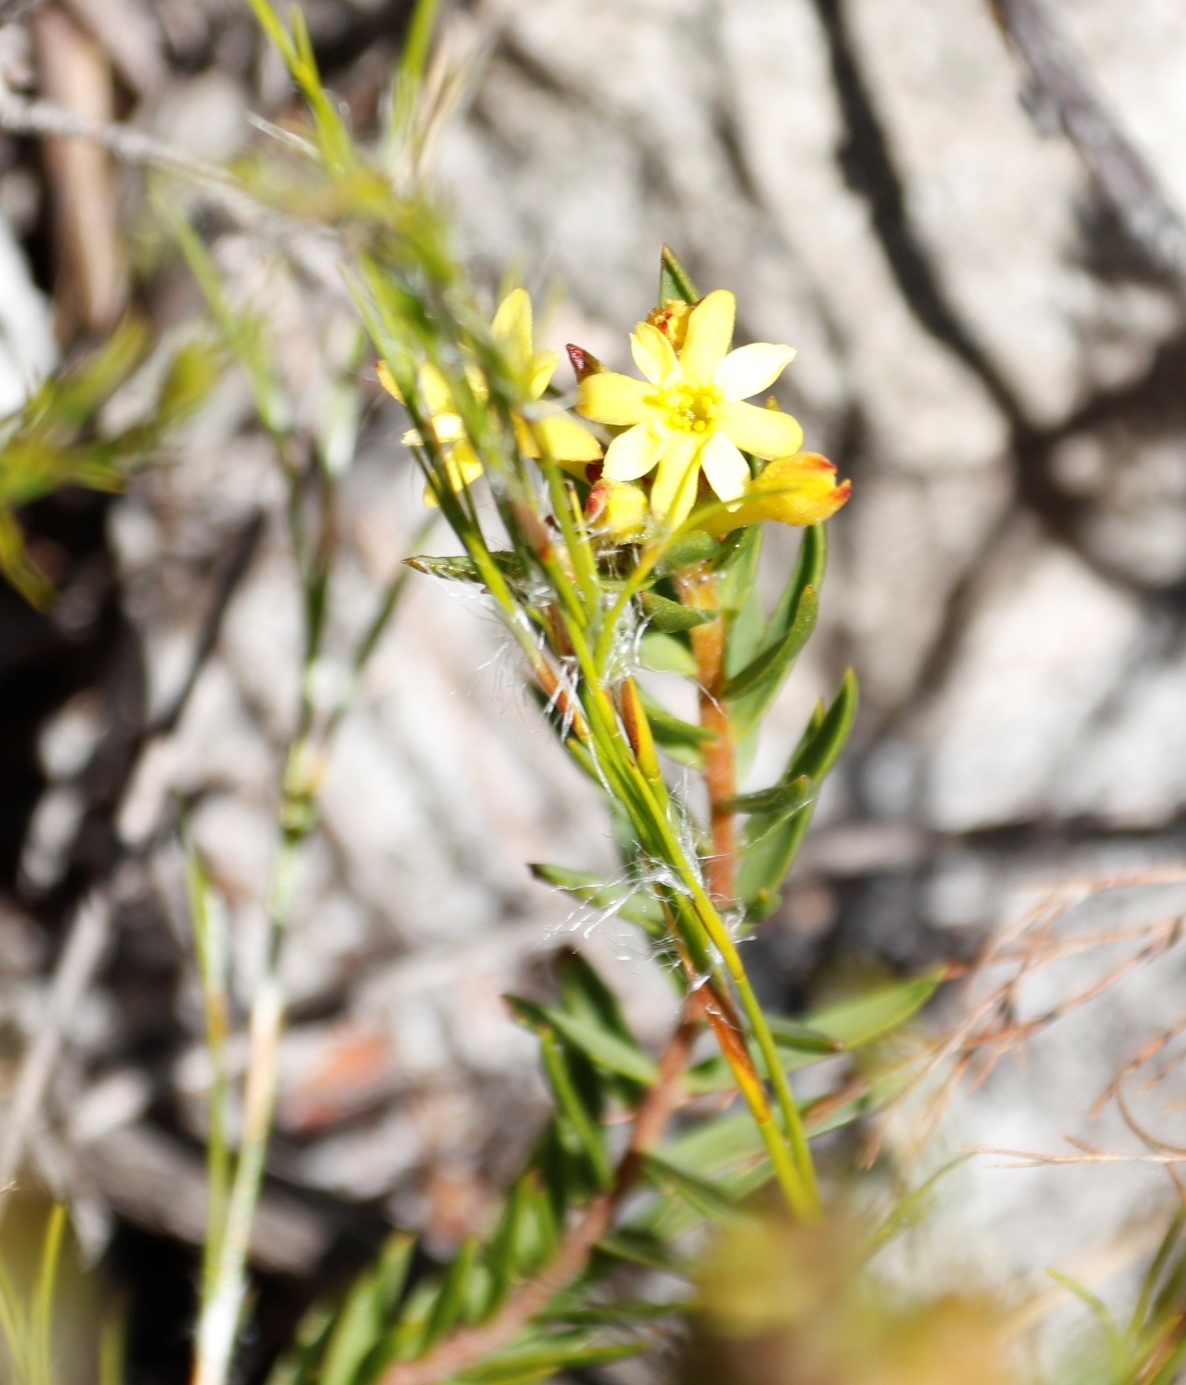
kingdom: Plantae
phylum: Tracheophyta
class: Magnoliopsida
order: Malvales
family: Thymelaeaceae
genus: Gnidia
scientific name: Gnidia juniperifolia
